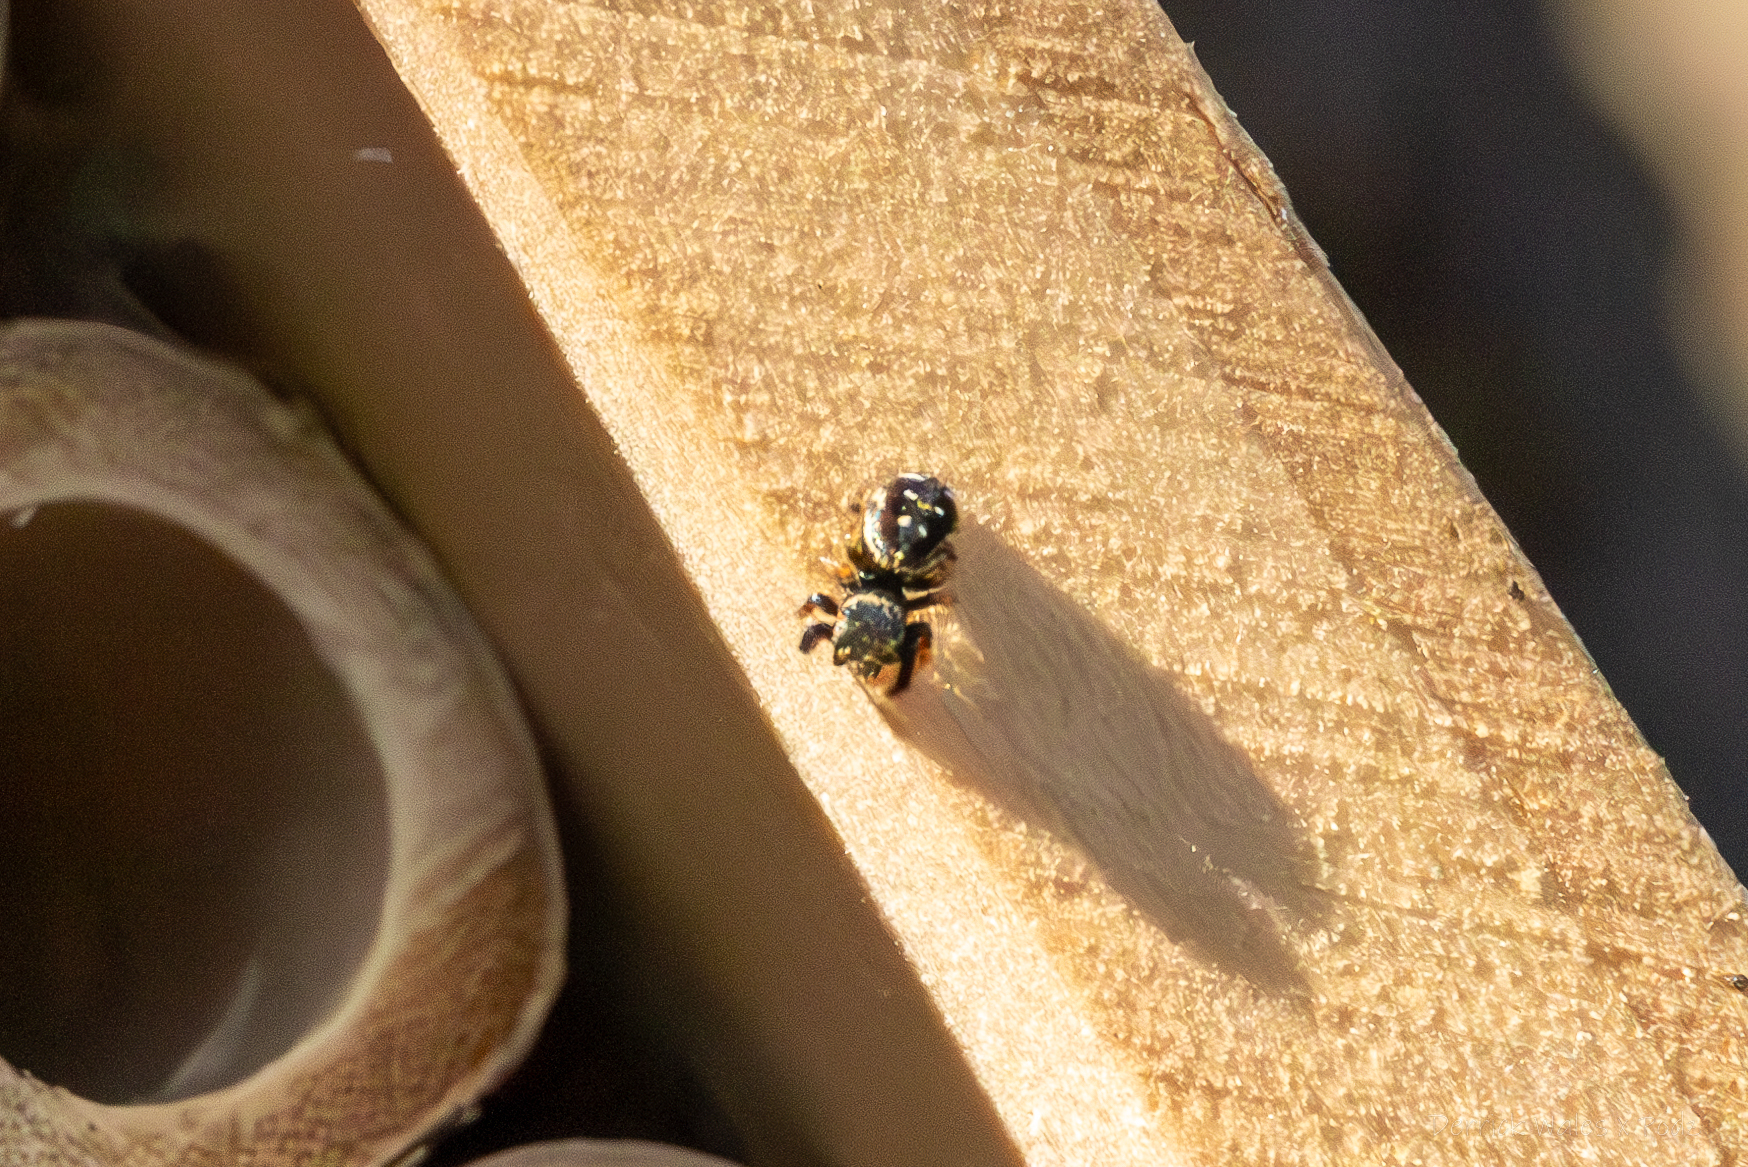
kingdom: Animalia
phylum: Arthropoda
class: Arachnida
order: Araneae
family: Salticidae
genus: Paraphidippus
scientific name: Paraphidippus aurantius
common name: Jumping spiders
